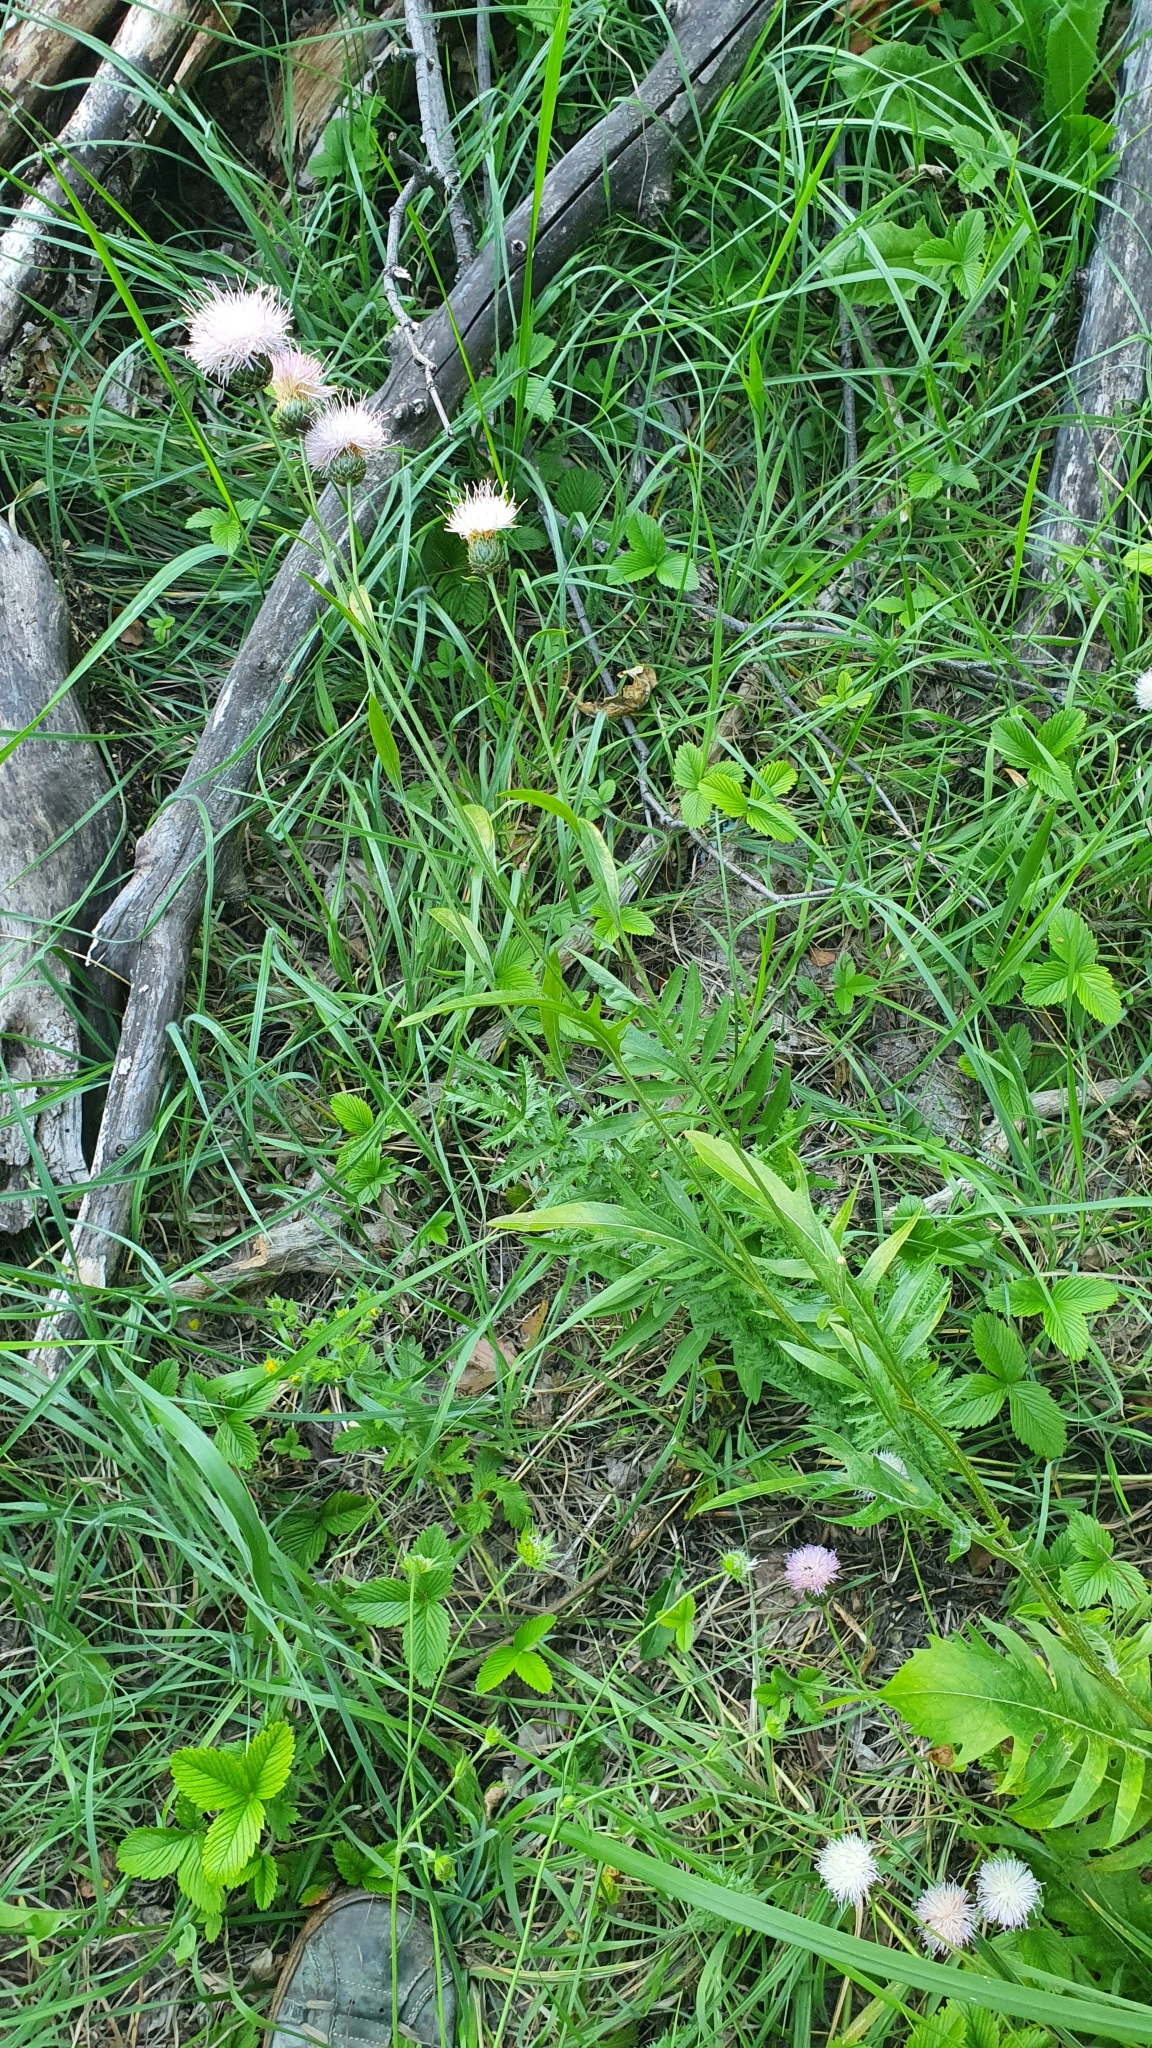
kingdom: Plantae
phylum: Tracheophyta
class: Magnoliopsida
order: Asterales
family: Asteraceae
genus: Klasea
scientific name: Klasea radiata
